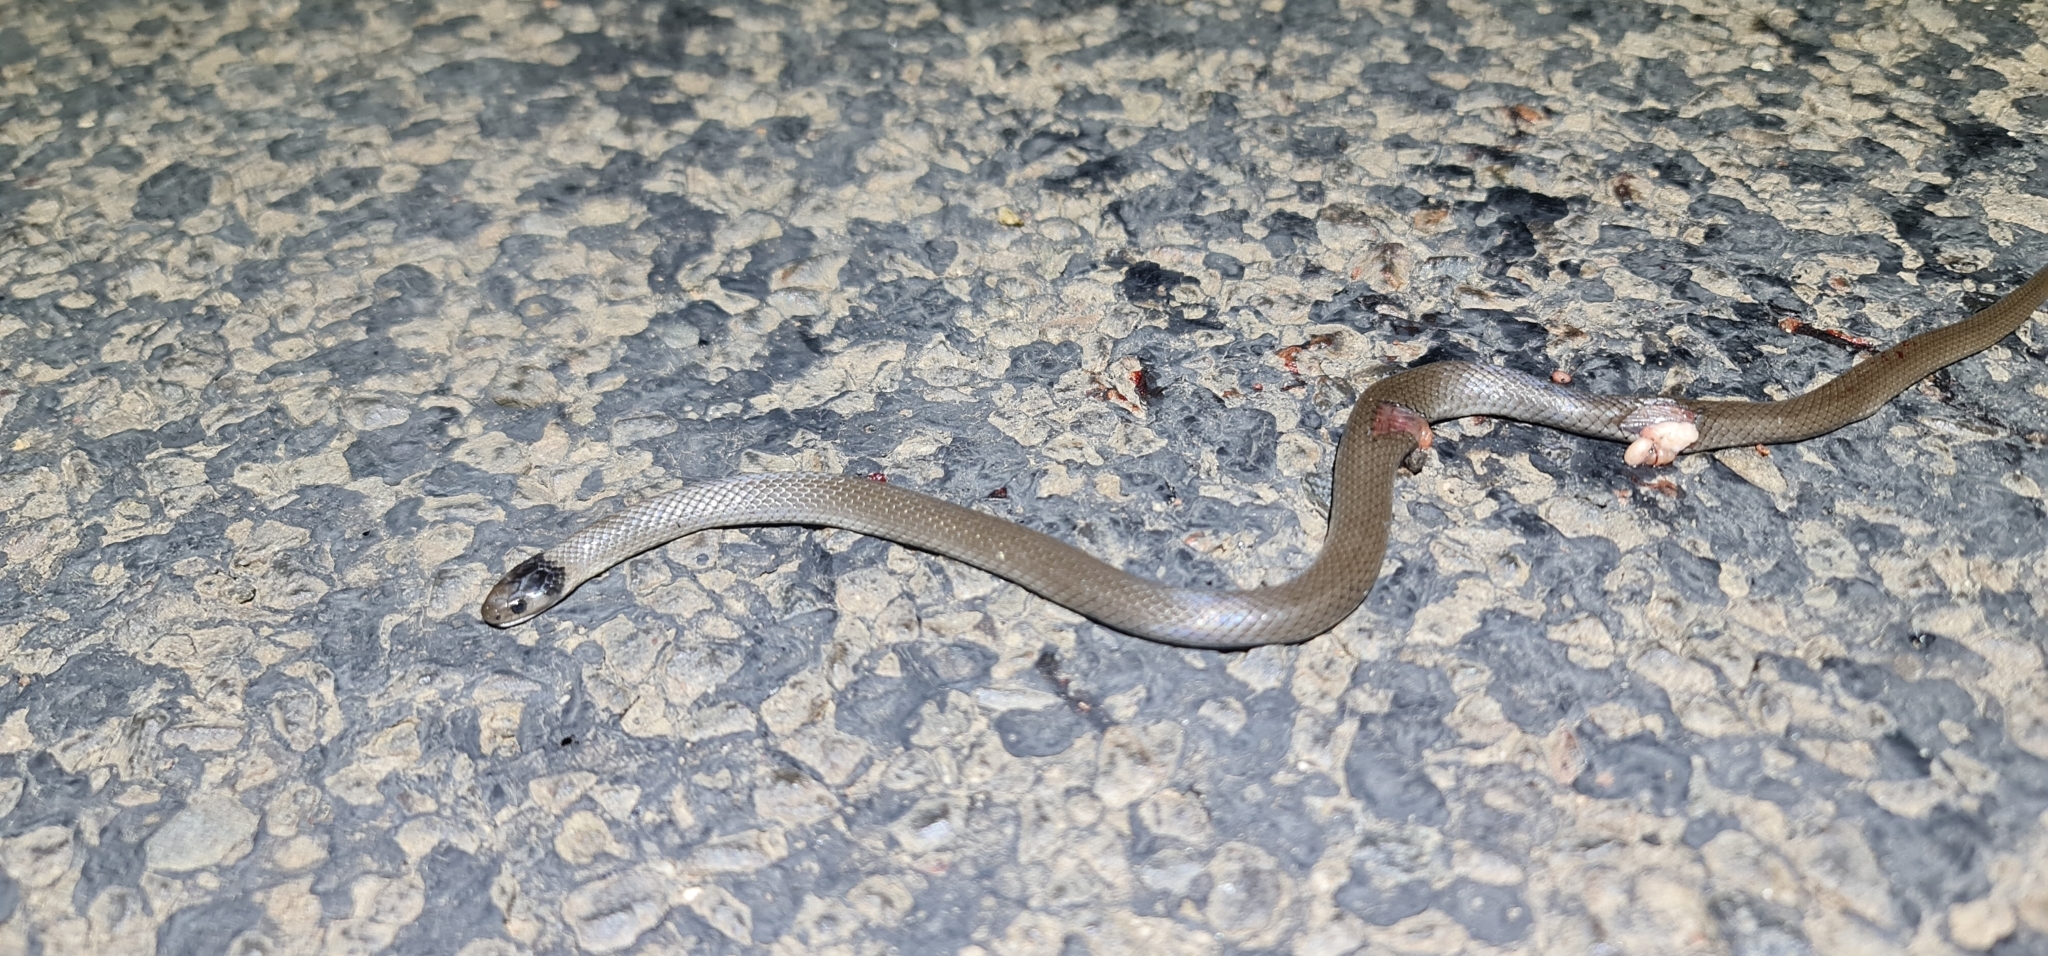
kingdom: Animalia
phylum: Chordata
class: Squamata
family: Elapidae
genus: Hemiaspis
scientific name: Hemiaspis damelii
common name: Grey snake
